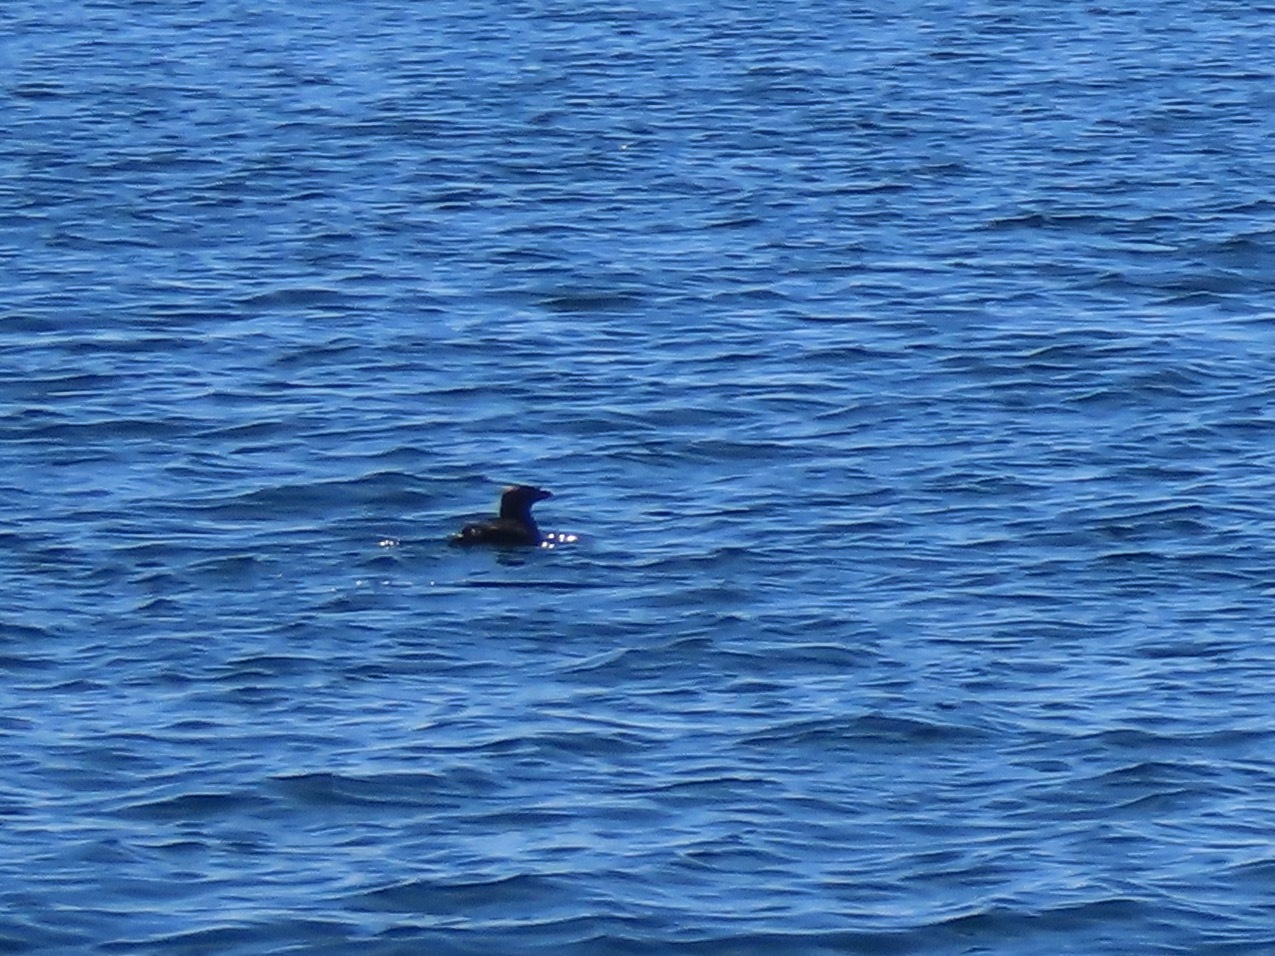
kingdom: Animalia
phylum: Chordata
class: Aves
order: Charadriiformes
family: Alcidae
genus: Cerorhinca
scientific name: Cerorhinca monocerata
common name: Rhinoceros auklet
